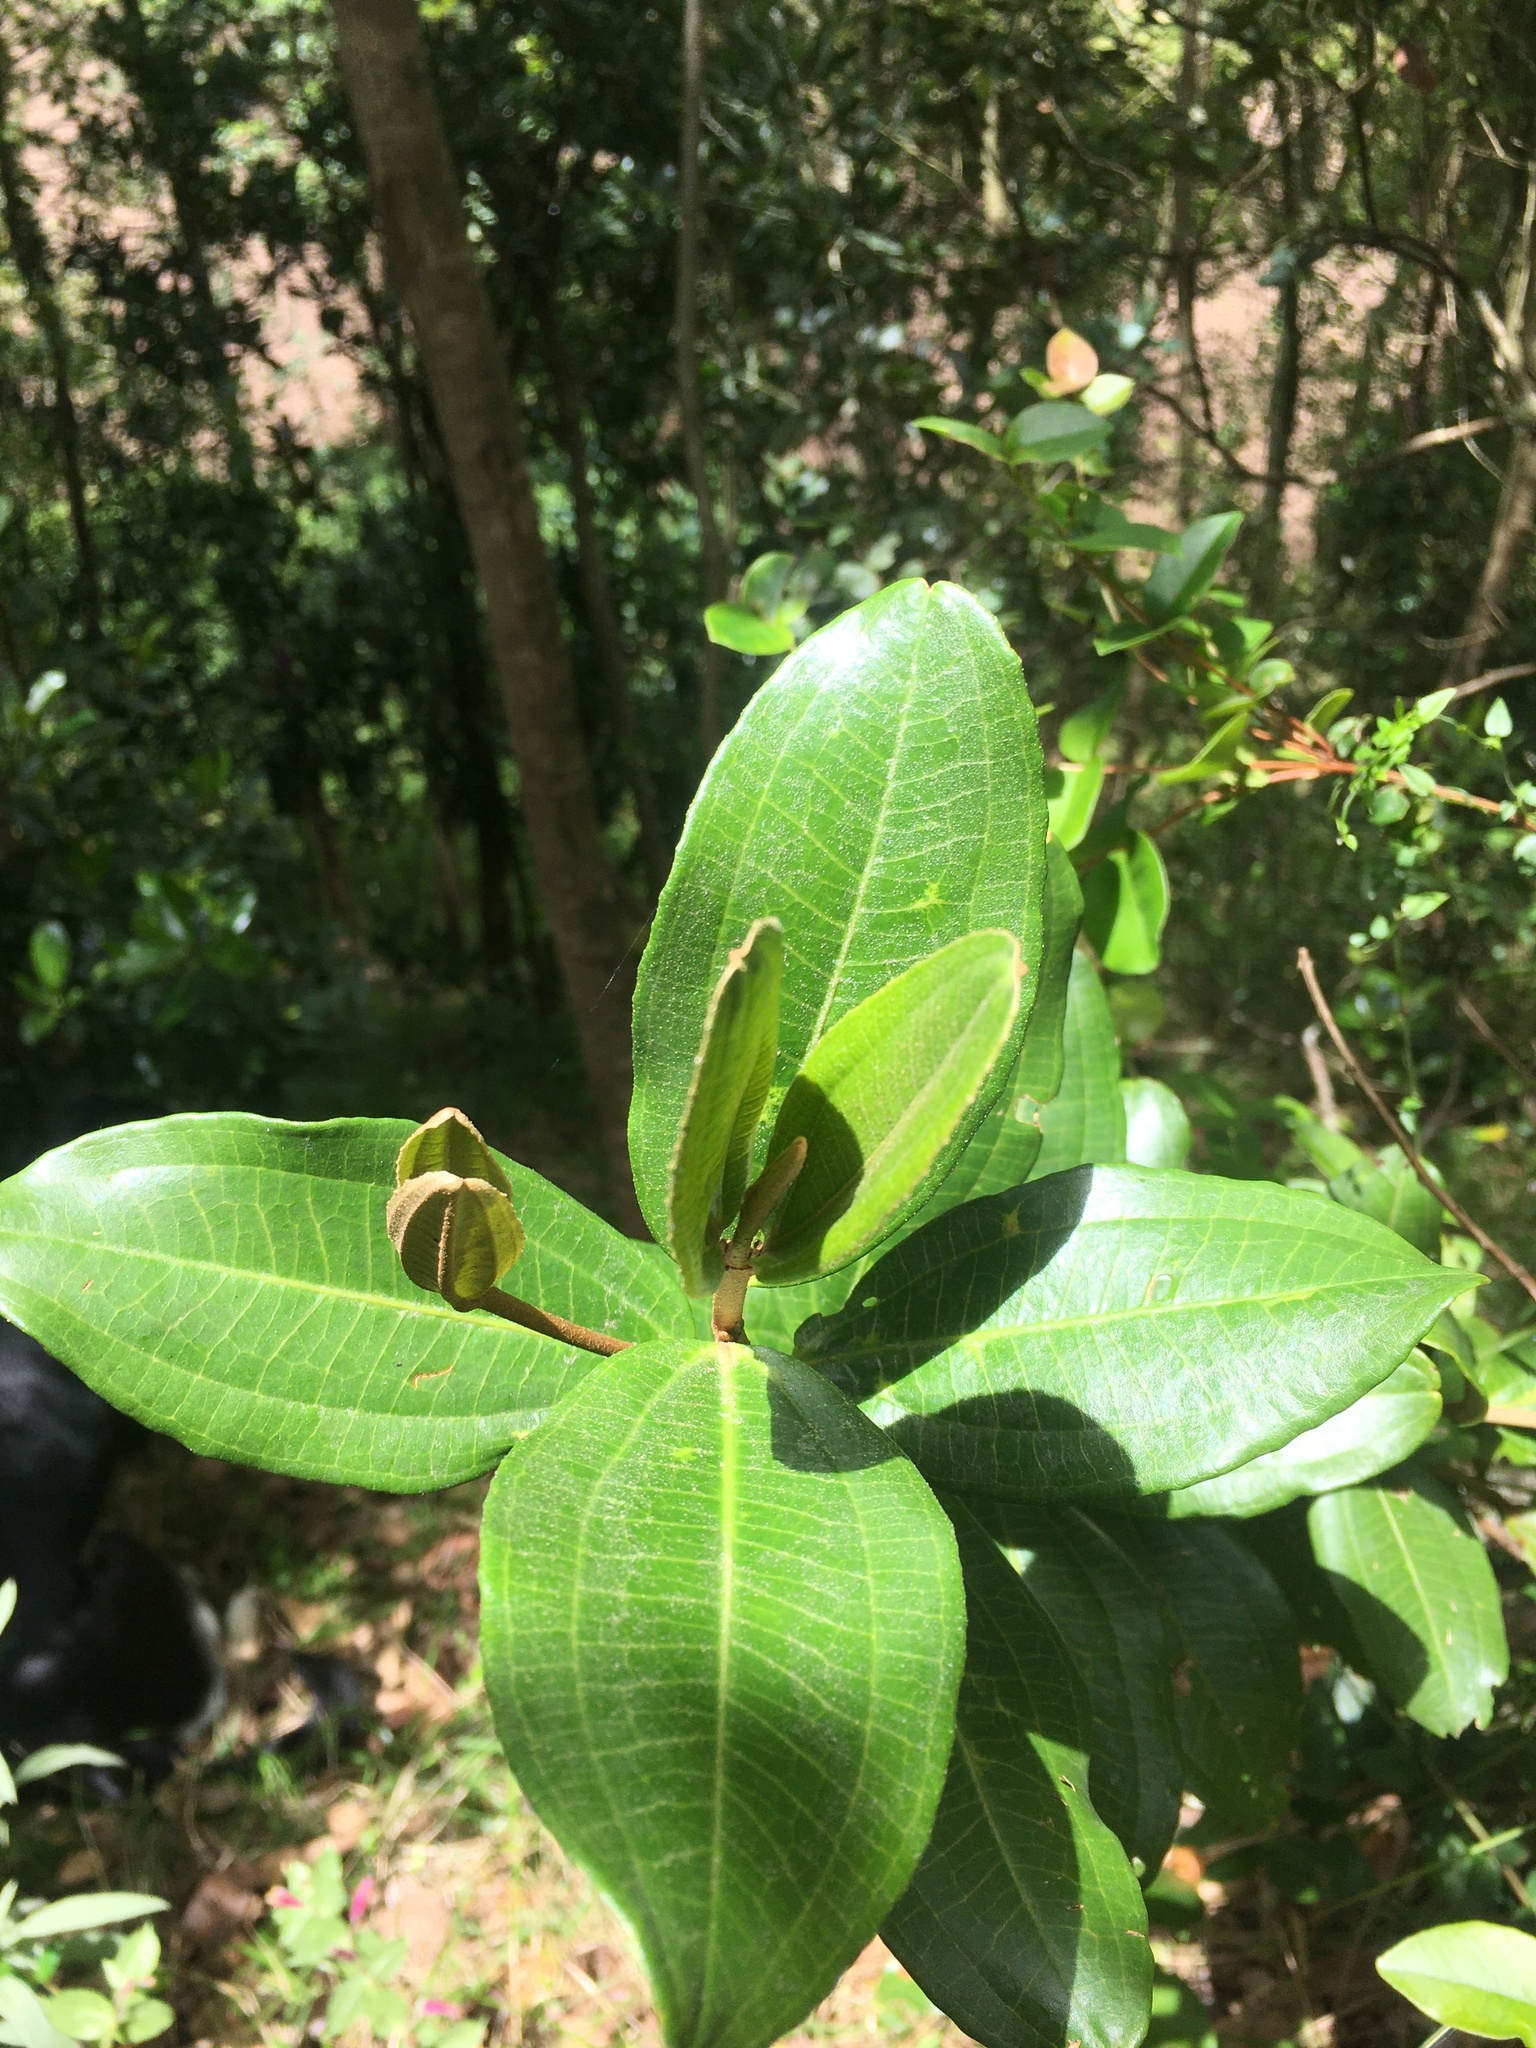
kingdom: Plantae
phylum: Tracheophyta
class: Magnoliopsida
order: Myrtales
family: Melastomataceae
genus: Miconia
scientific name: Miconia squamulosa
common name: Squamulose maya
